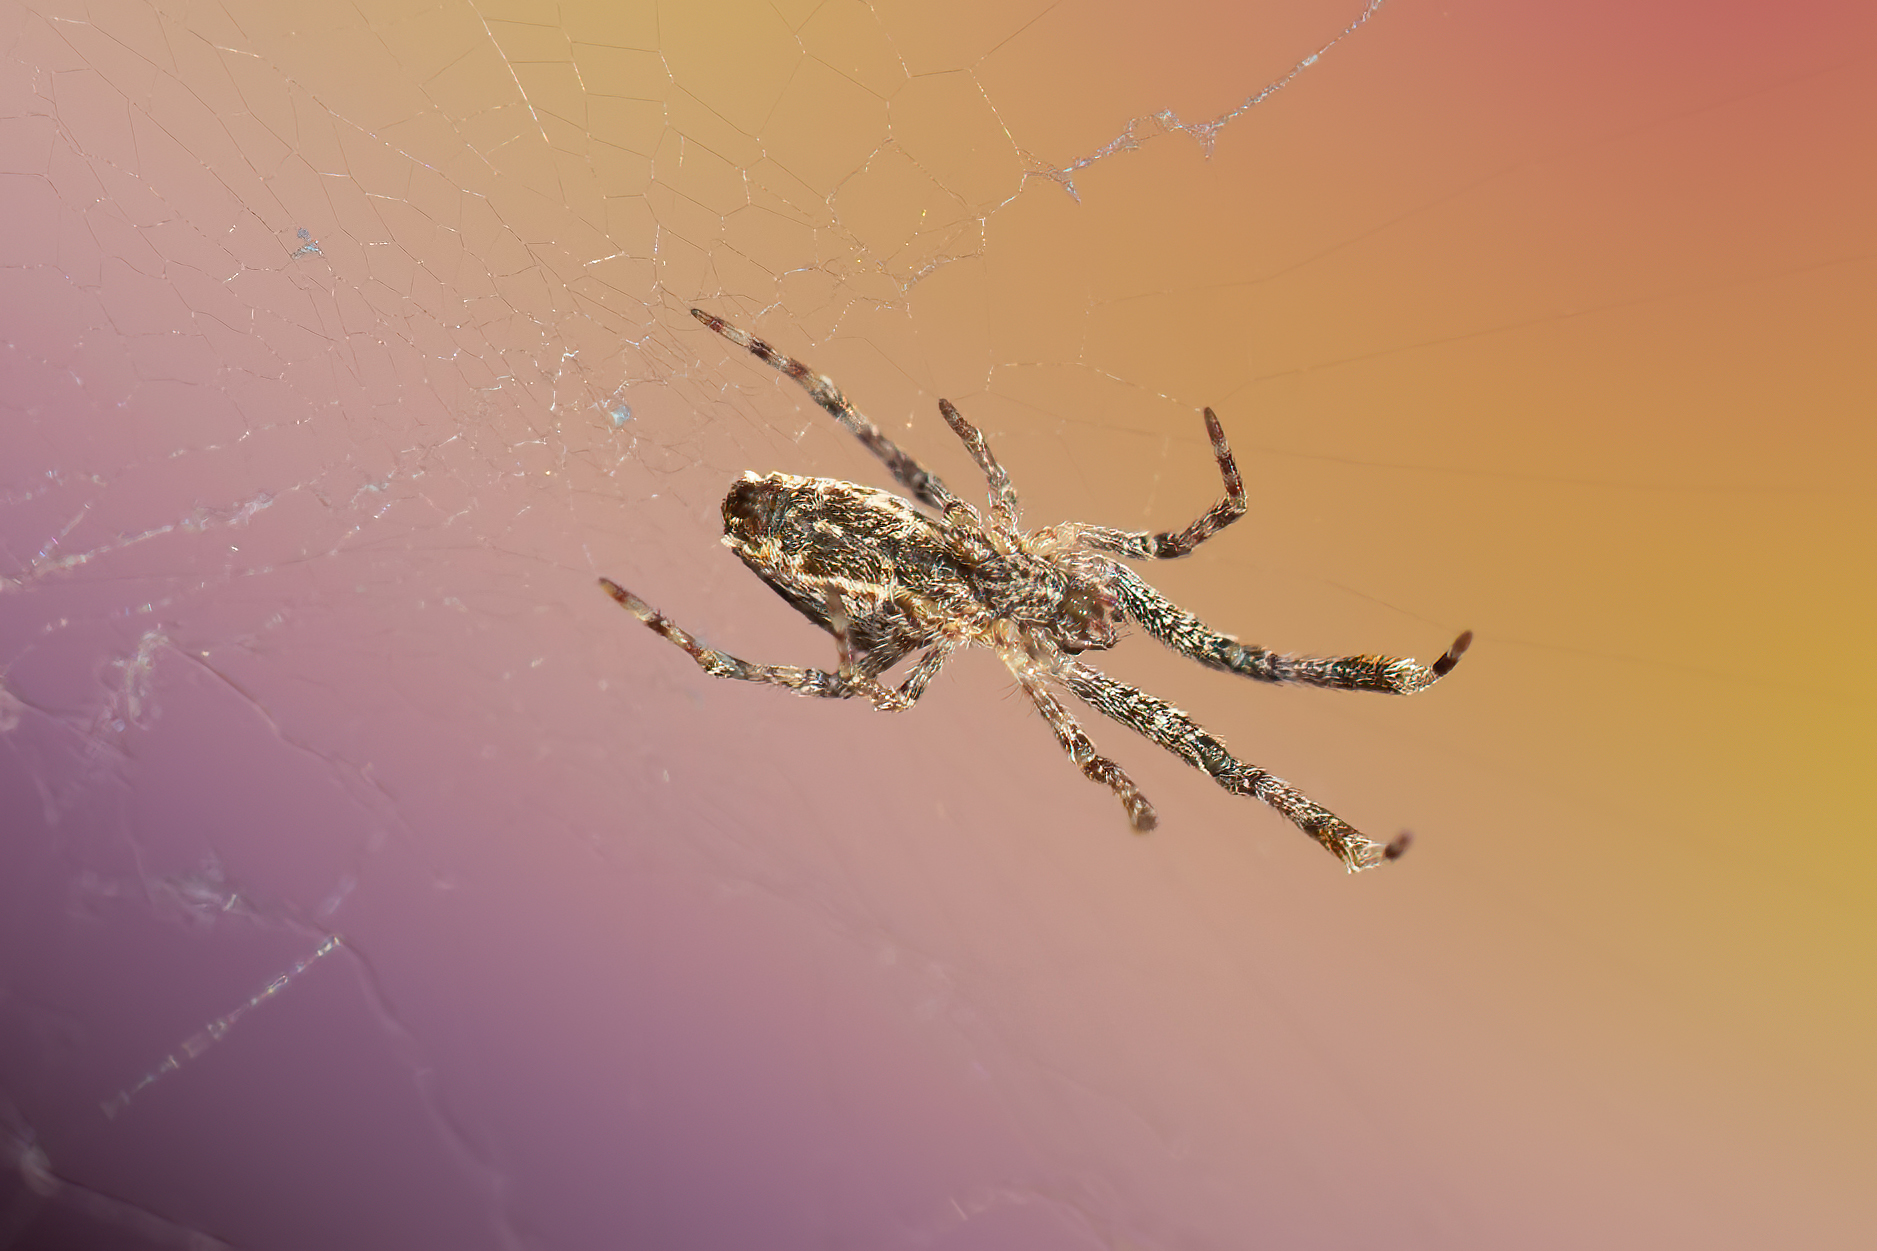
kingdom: Animalia
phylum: Arthropoda
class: Arachnida
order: Araneae
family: Uloboridae
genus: Uloborus
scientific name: Uloborus diversus
